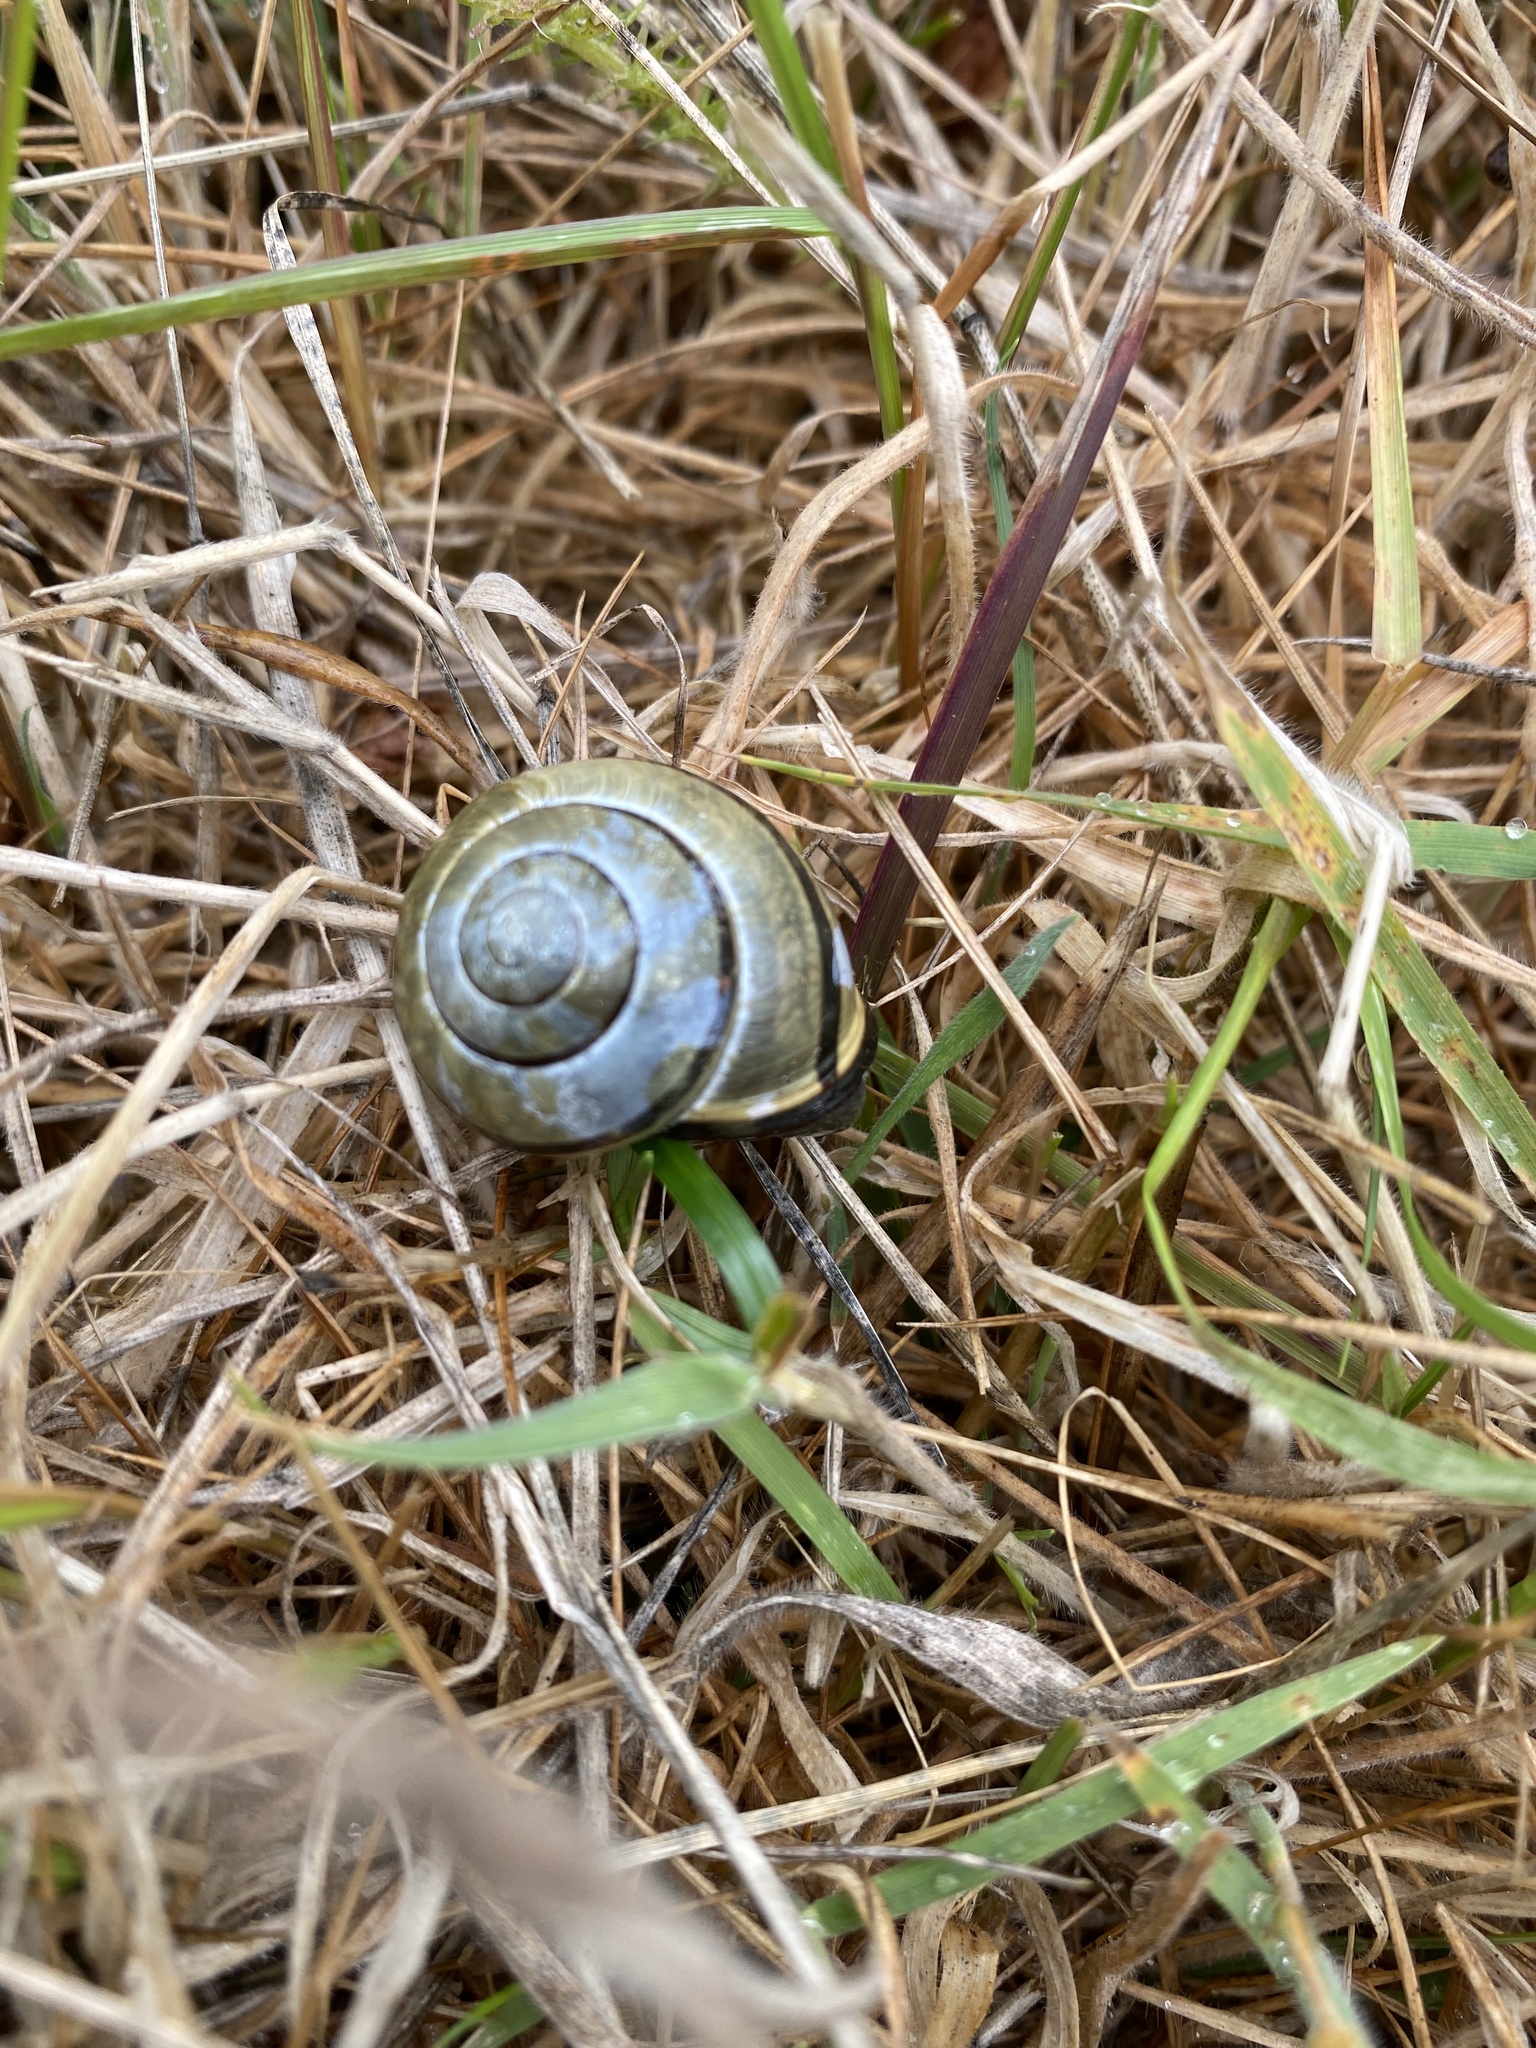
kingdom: Animalia
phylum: Mollusca
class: Gastropoda
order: Stylommatophora
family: Helicidae
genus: Cepaea
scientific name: Cepaea nemoralis
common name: Grovesnail
